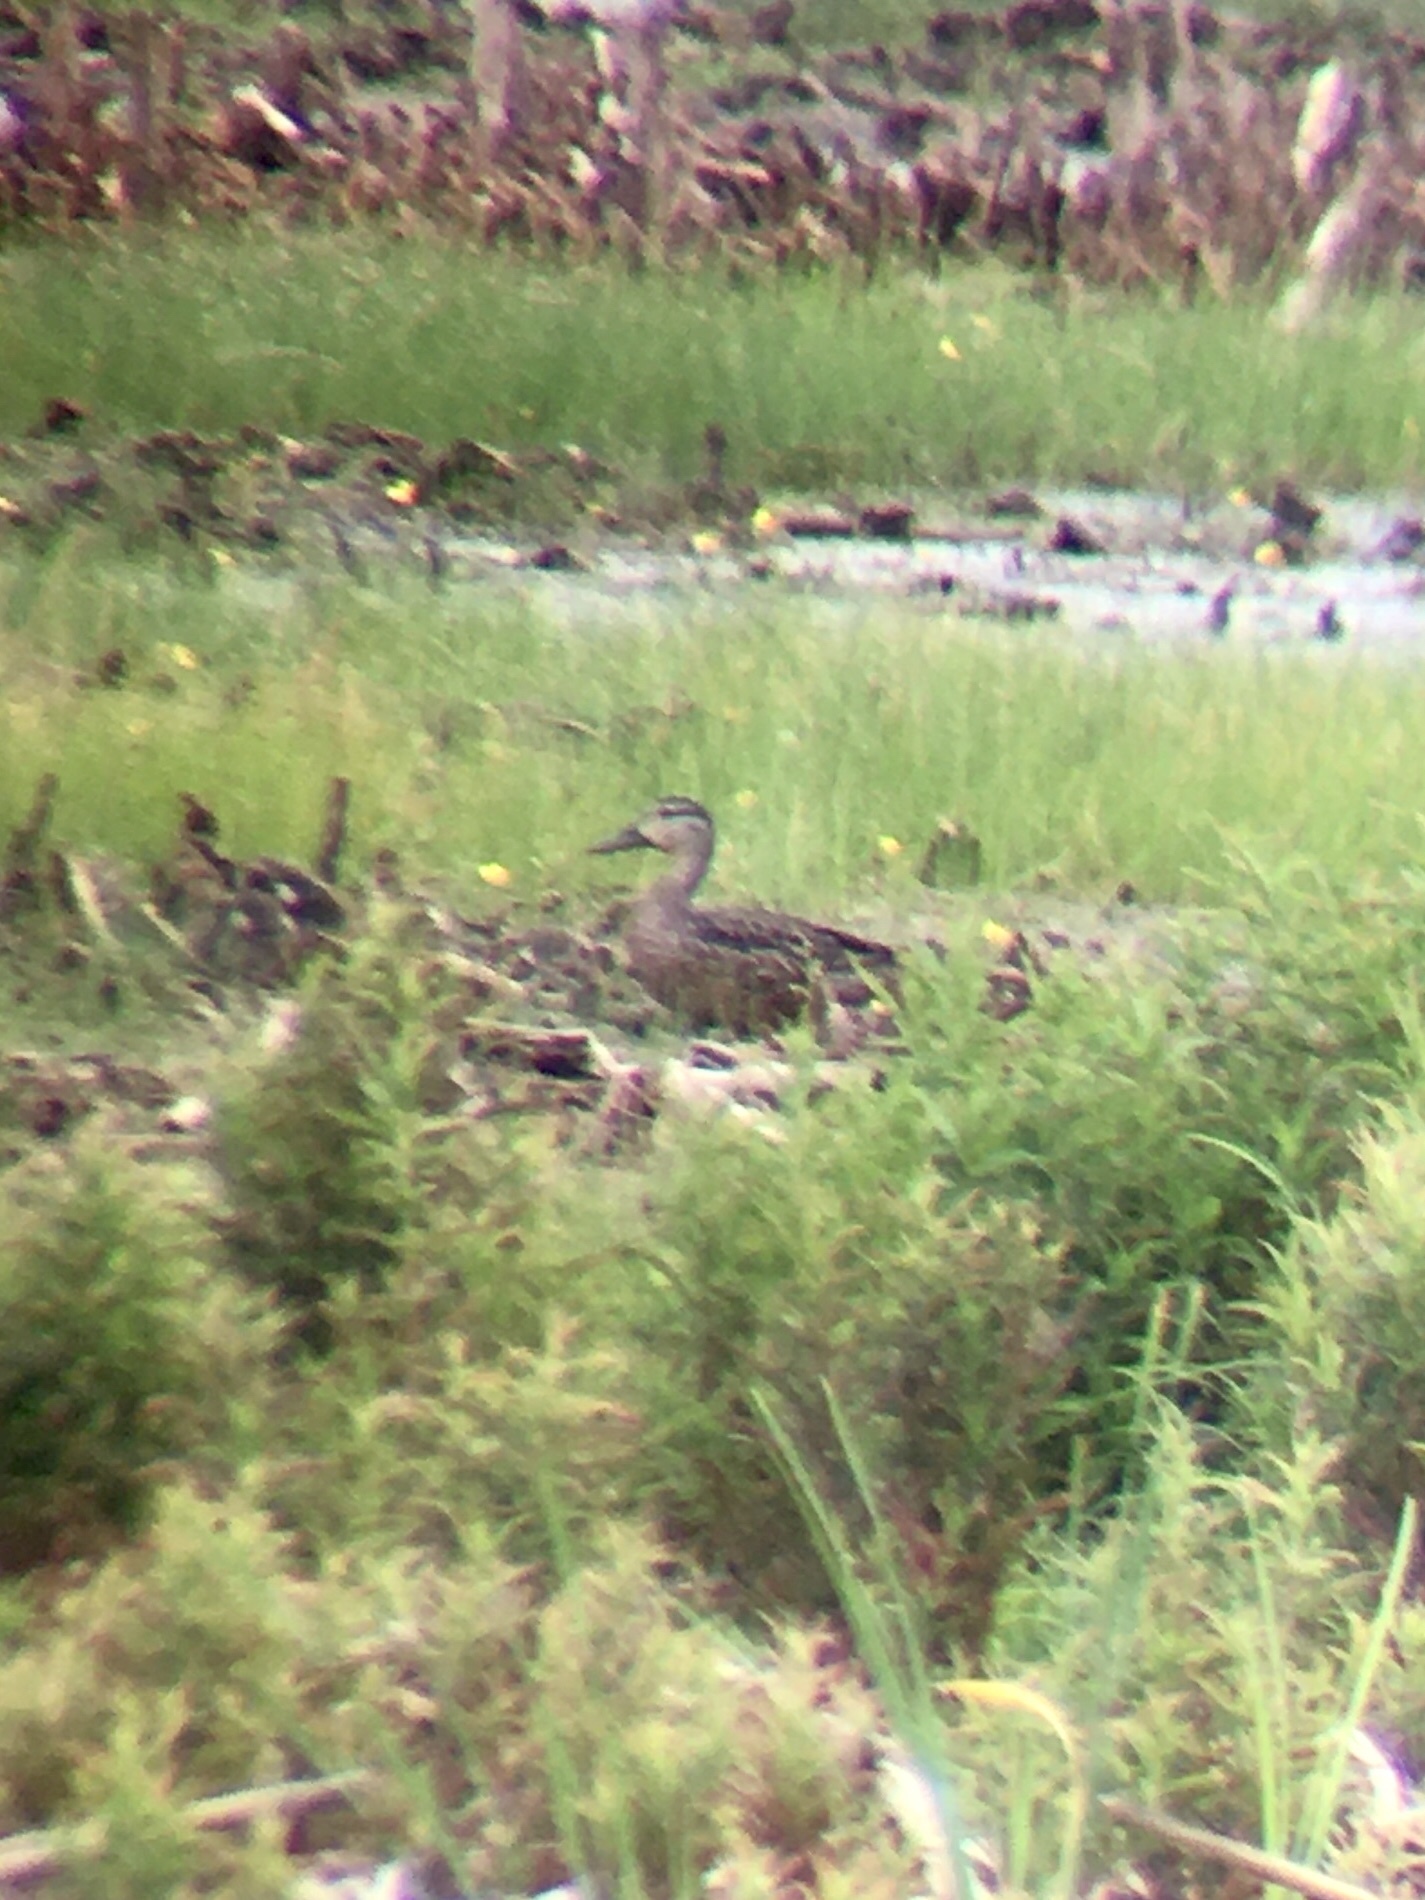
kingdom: Animalia
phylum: Chordata
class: Aves
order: Anseriformes
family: Anatidae
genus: Spatula
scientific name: Spatula discors
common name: Blue-winged teal
